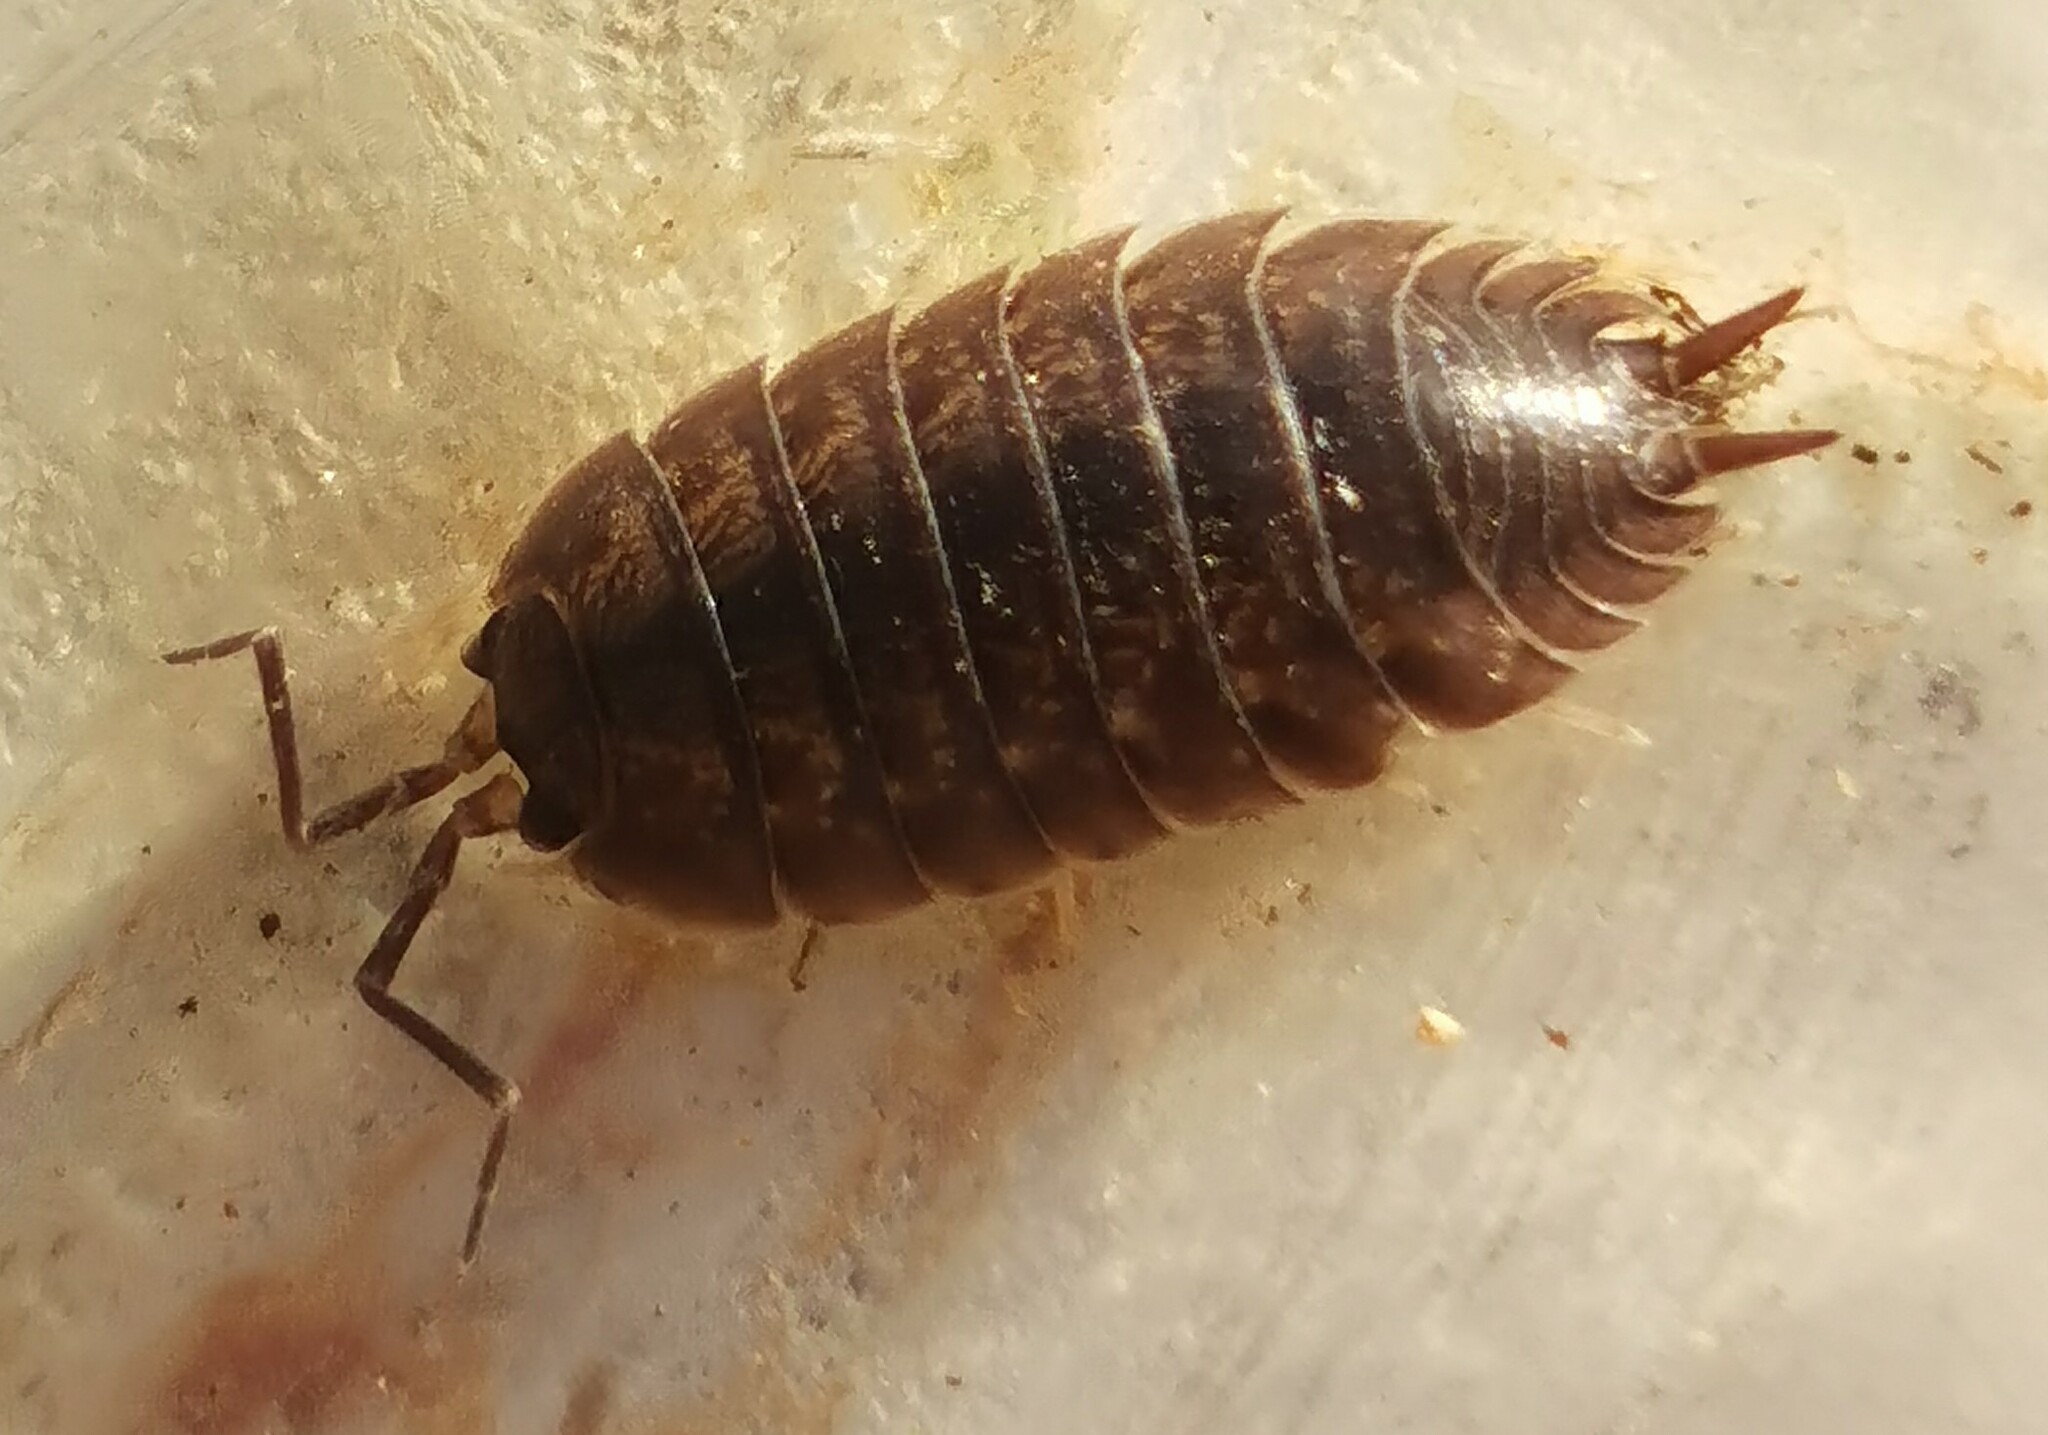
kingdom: Animalia
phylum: Arthropoda
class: Malacostraca
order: Isopoda
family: Porcellionidae
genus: Porcellio
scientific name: Porcellio laevis
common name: Swift woodlouse
